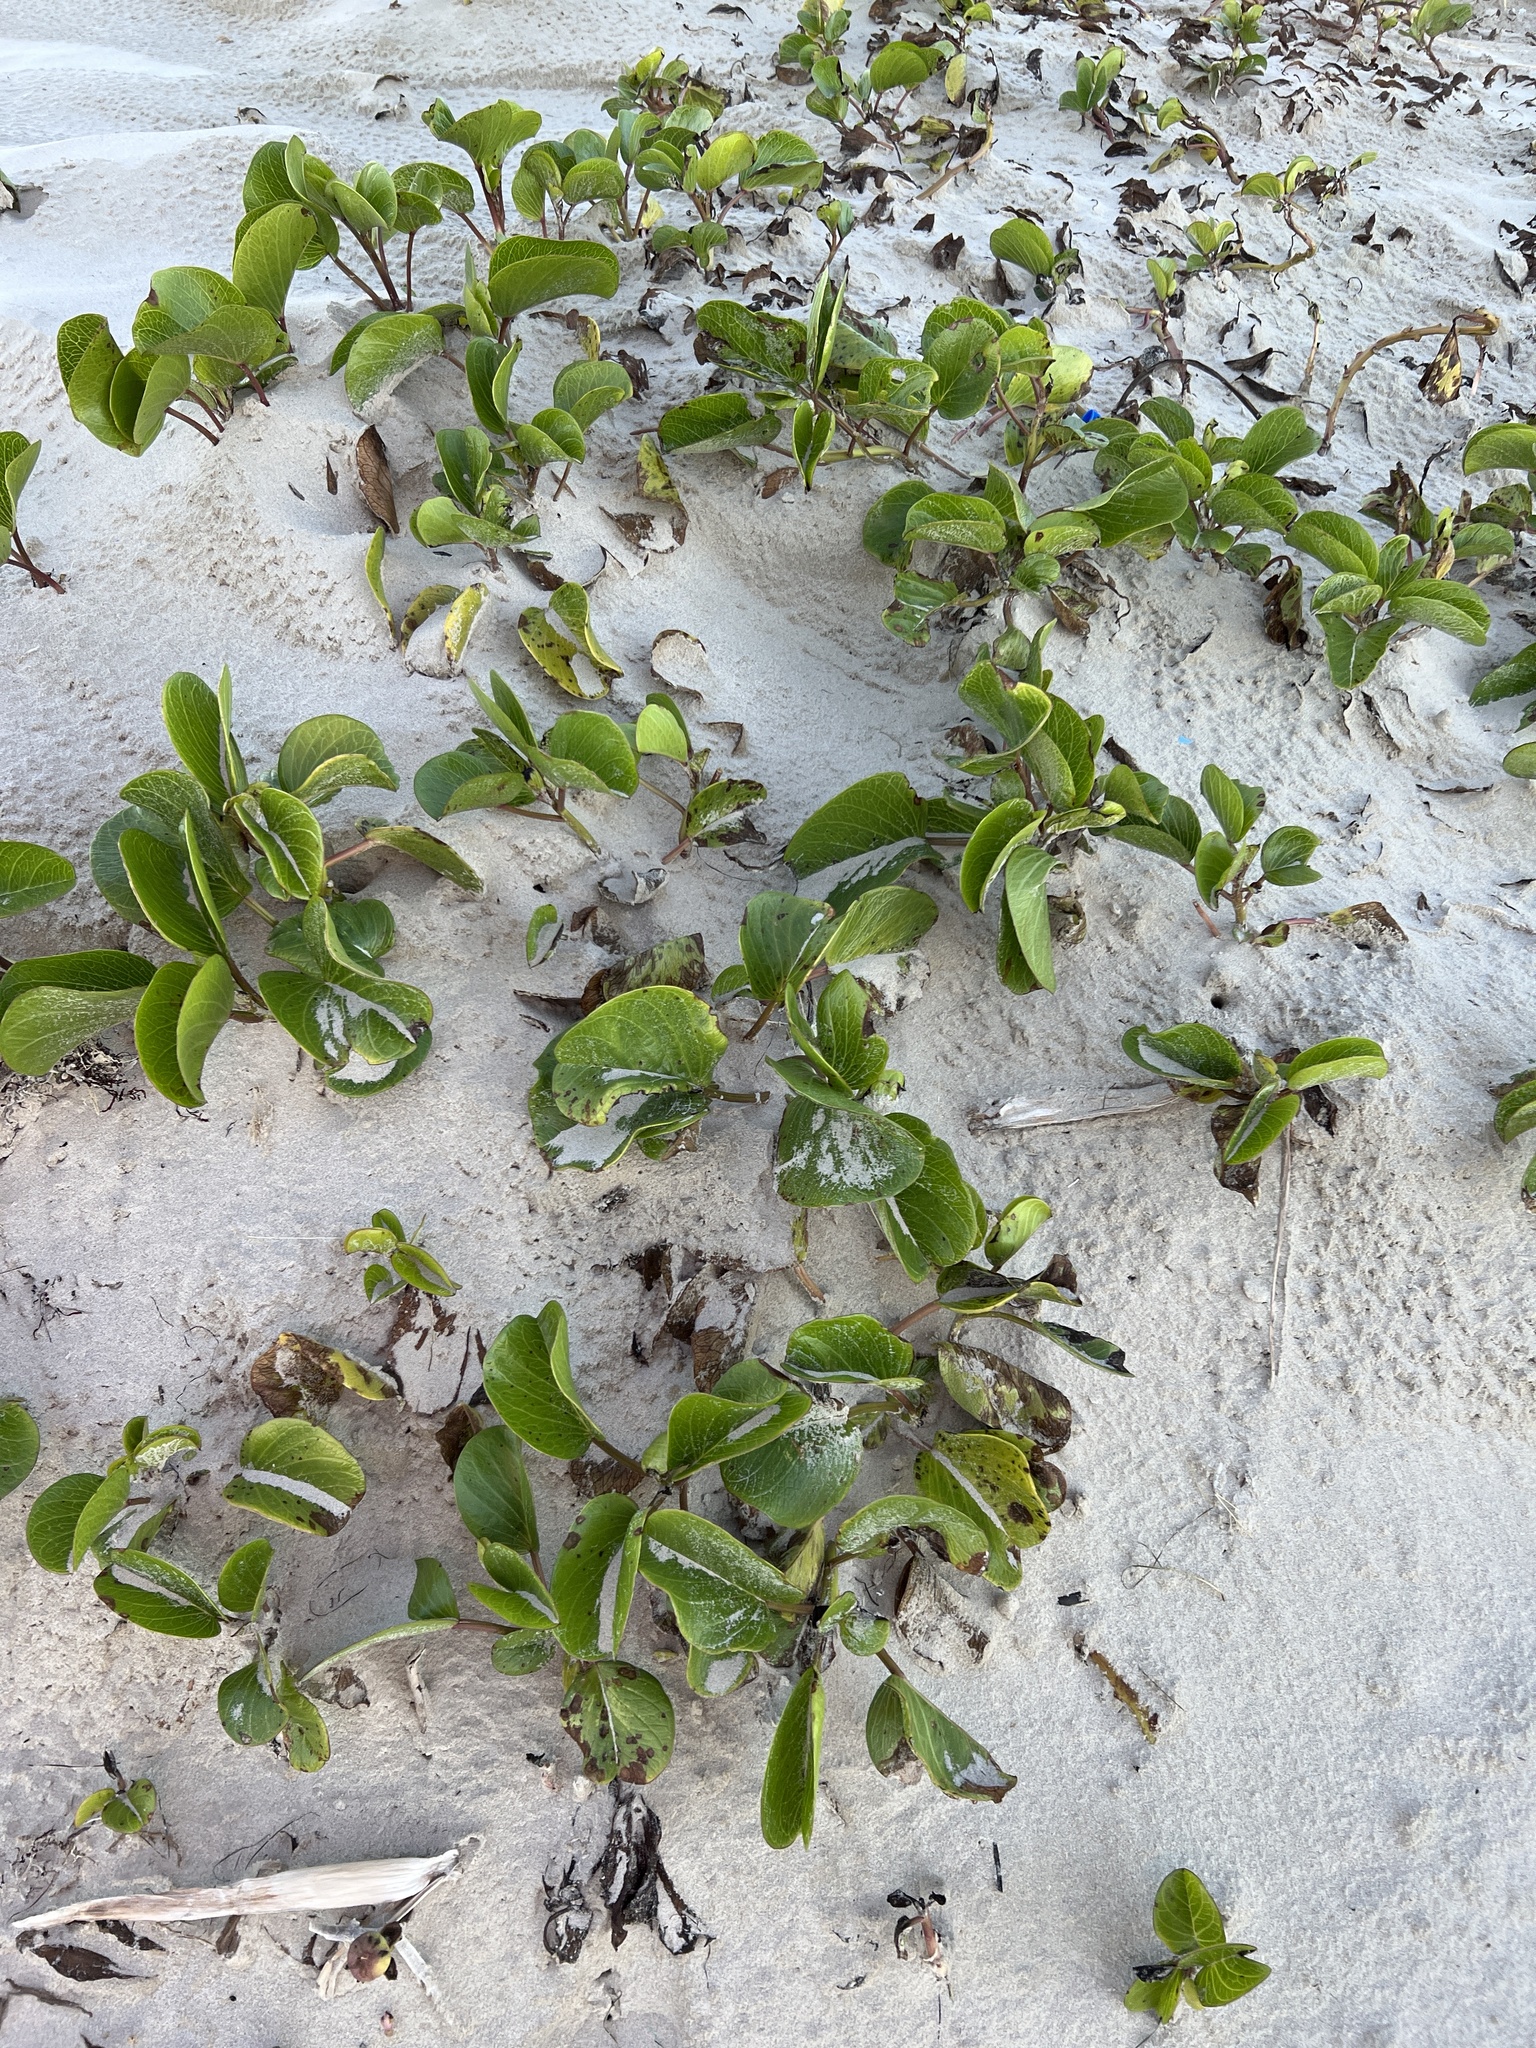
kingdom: Plantae
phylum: Tracheophyta
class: Magnoliopsida
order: Solanales
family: Convolvulaceae
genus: Ipomoea
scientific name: Ipomoea pes-caprae
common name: Beach morning glory
